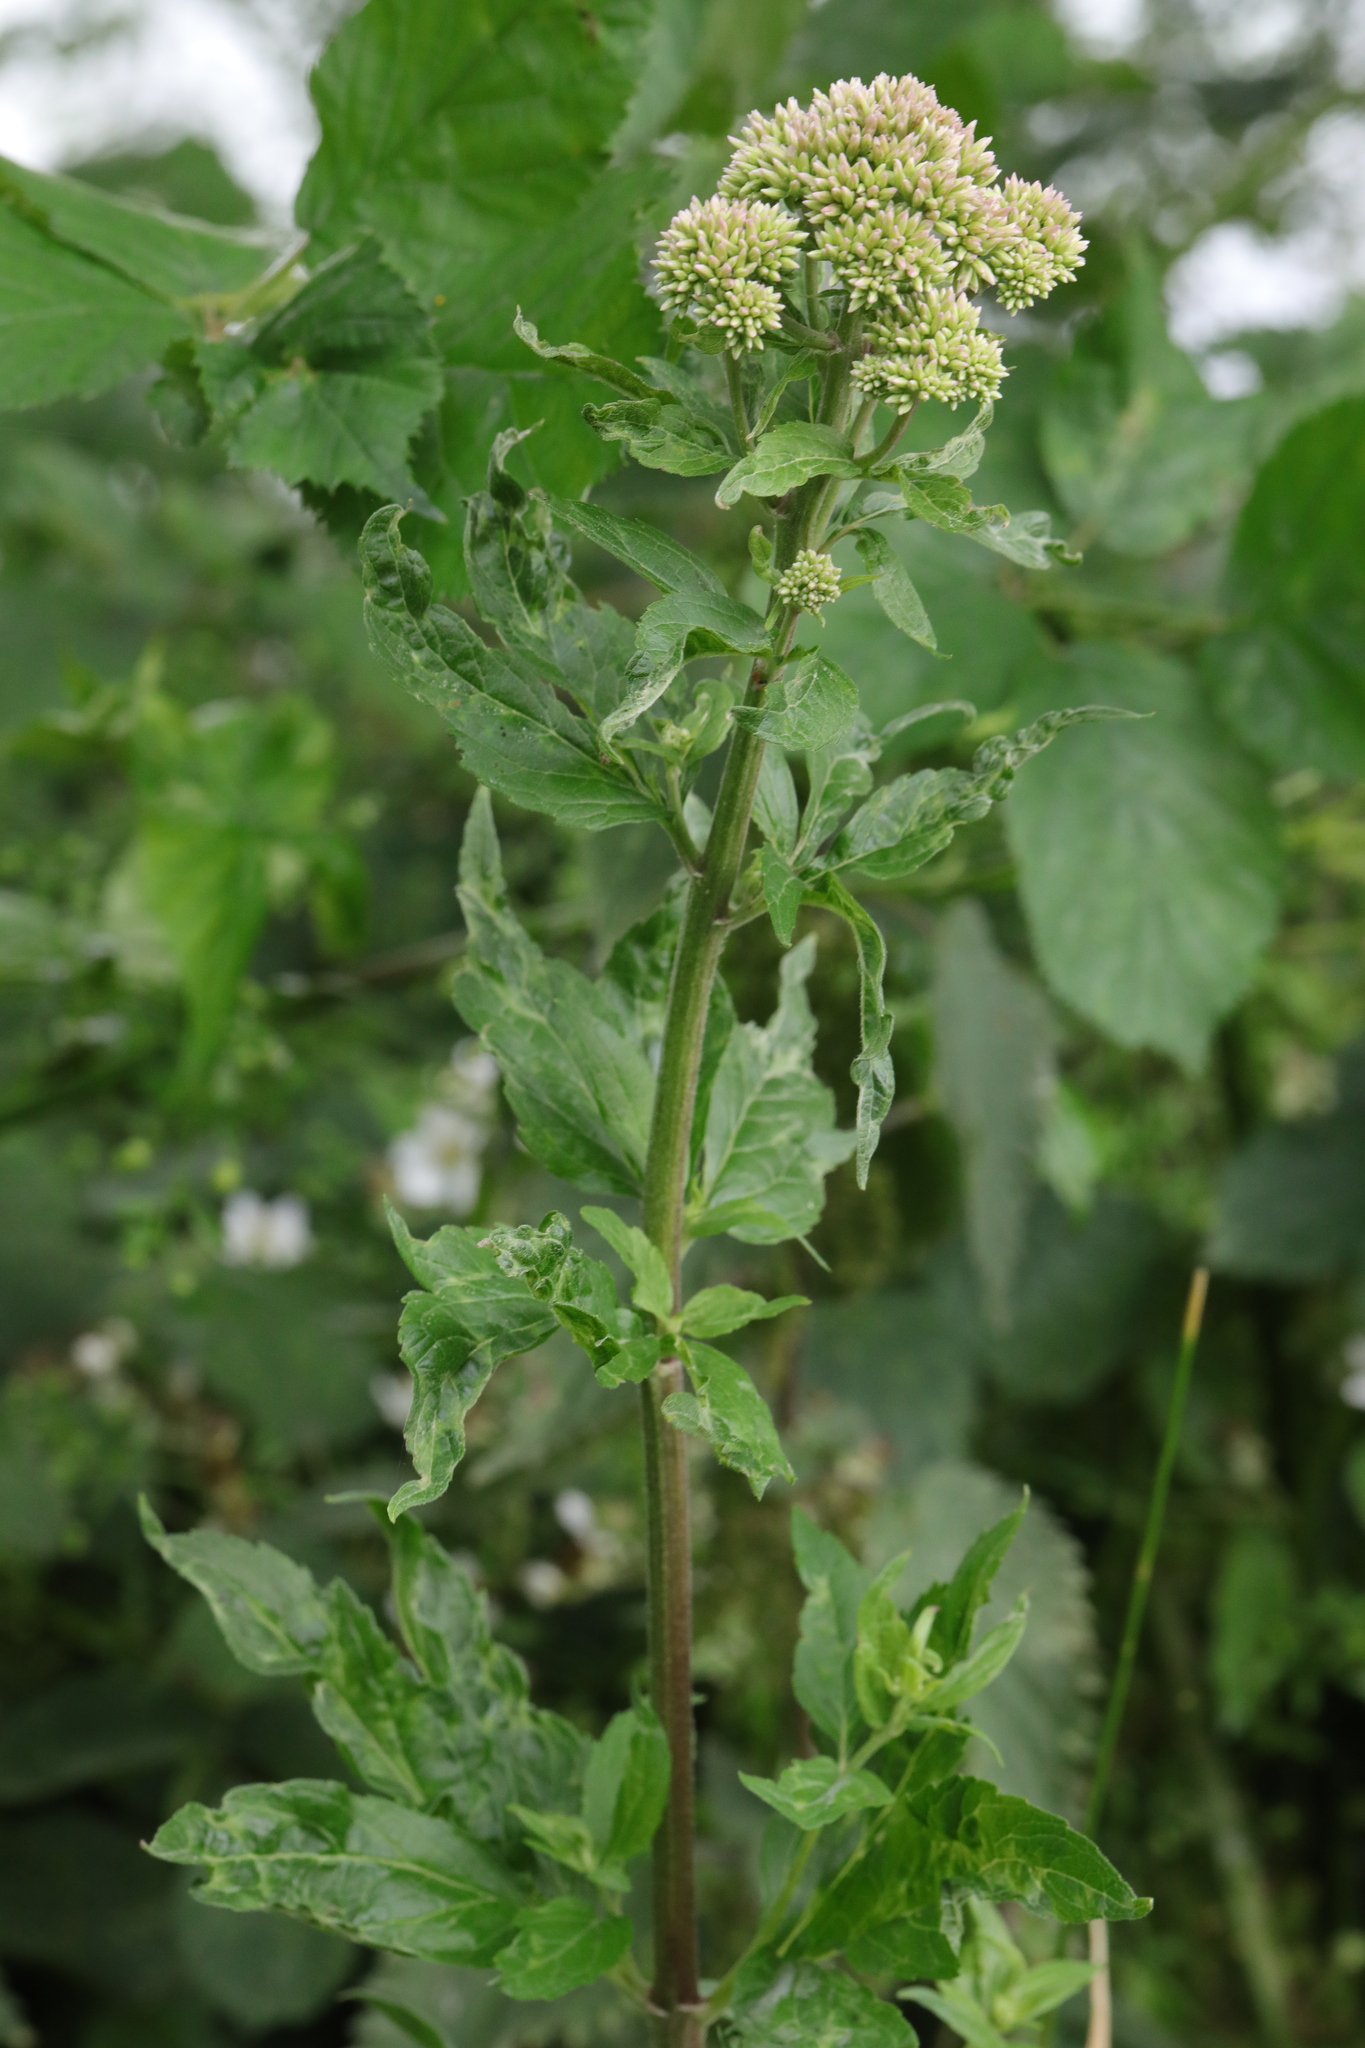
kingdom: Plantae
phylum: Tracheophyta
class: Magnoliopsida
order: Asterales
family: Asteraceae
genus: Eupatorium
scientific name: Eupatorium cannabinum
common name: Hemp-agrimony
